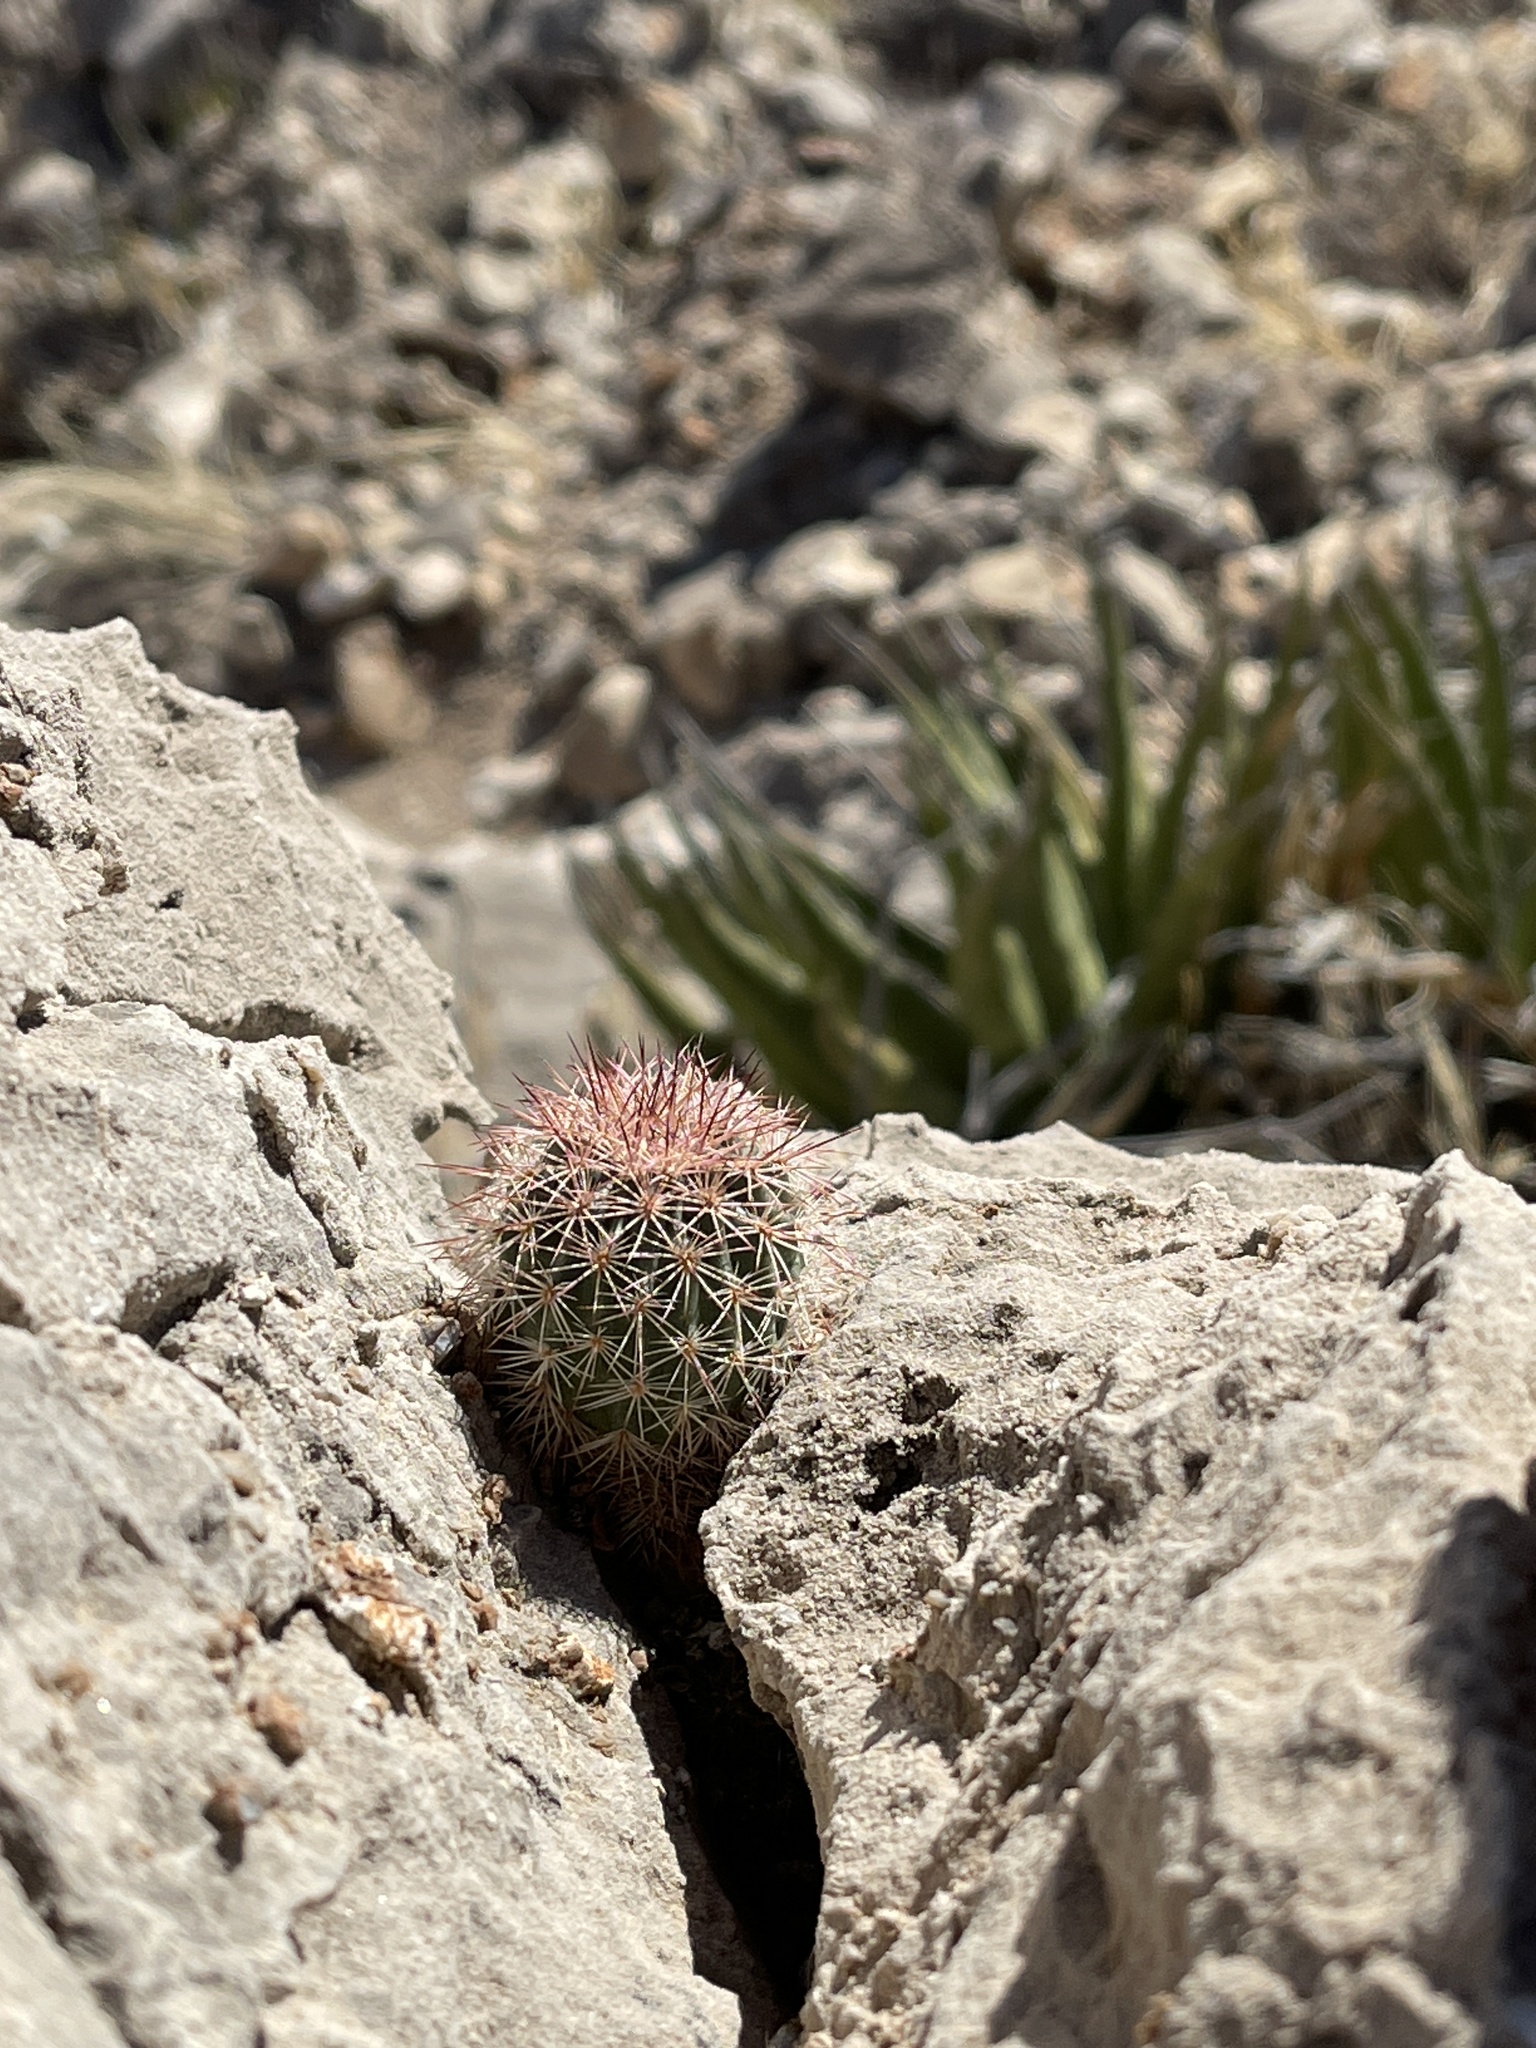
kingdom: Plantae
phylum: Tracheophyta
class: Magnoliopsida
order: Caryophyllales
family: Cactaceae
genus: Echinocereus
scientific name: Echinocereus dasyacanthus
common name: Spiny hedgehog cactus
